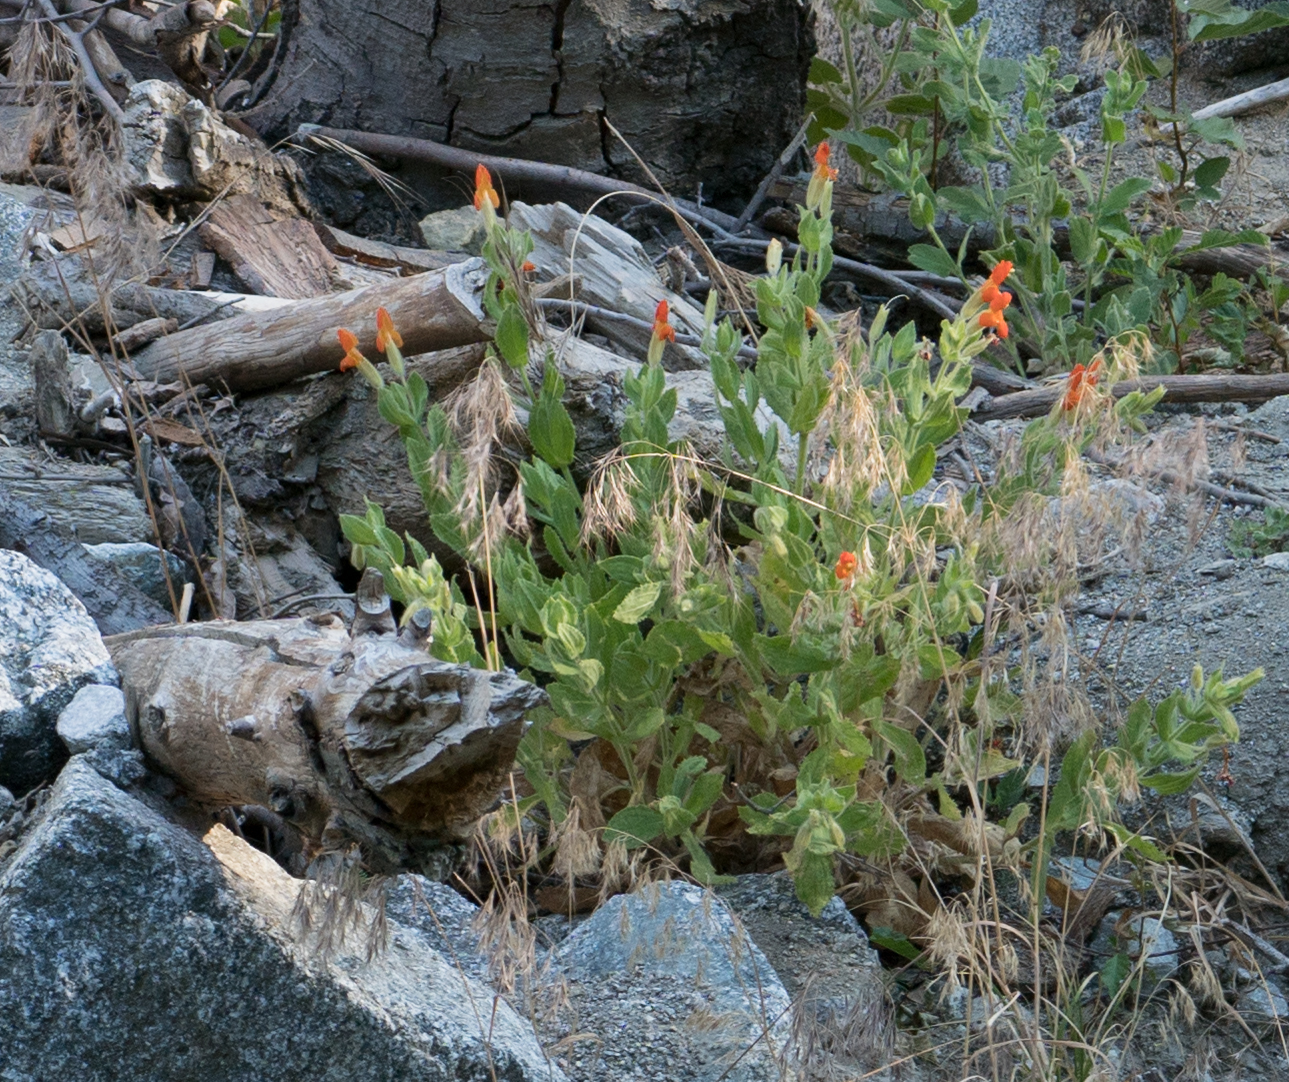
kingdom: Plantae
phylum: Tracheophyta
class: Magnoliopsida
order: Lamiales
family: Phrymaceae
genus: Erythranthe
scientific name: Erythranthe cardinalis
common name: Scarlet monkey-flower
